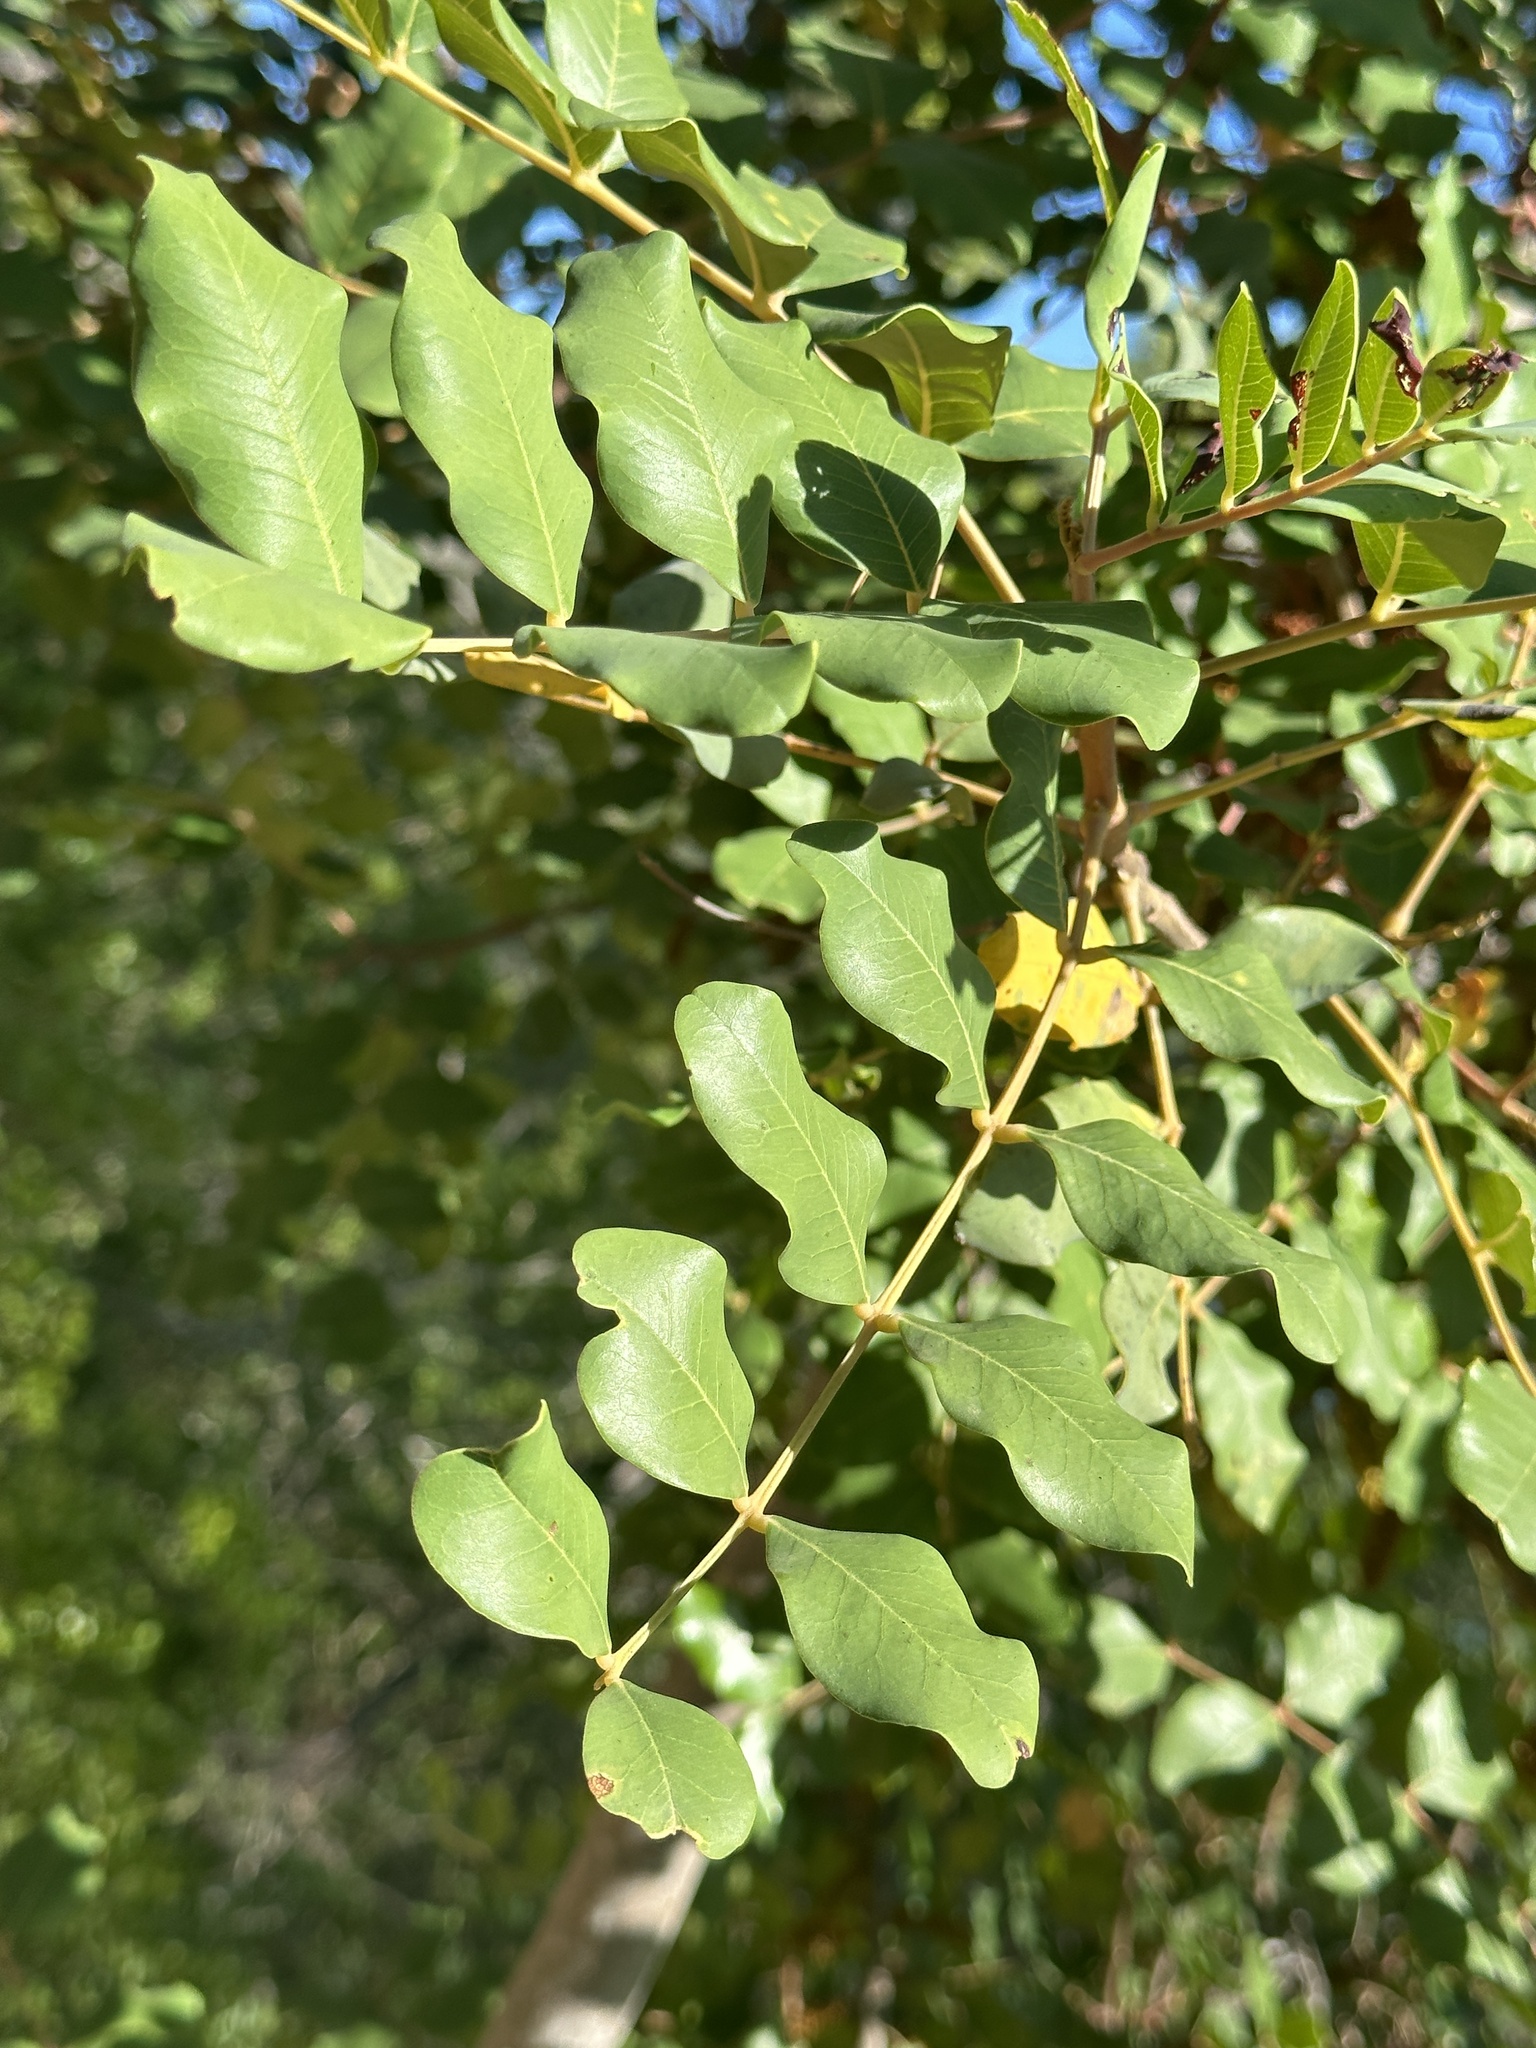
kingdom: Plantae
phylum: Tracheophyta
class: Magnoliopsida
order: Fabales
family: Fabaceae
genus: Ceratonia
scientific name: Ceratonia siliqua
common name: Carob
